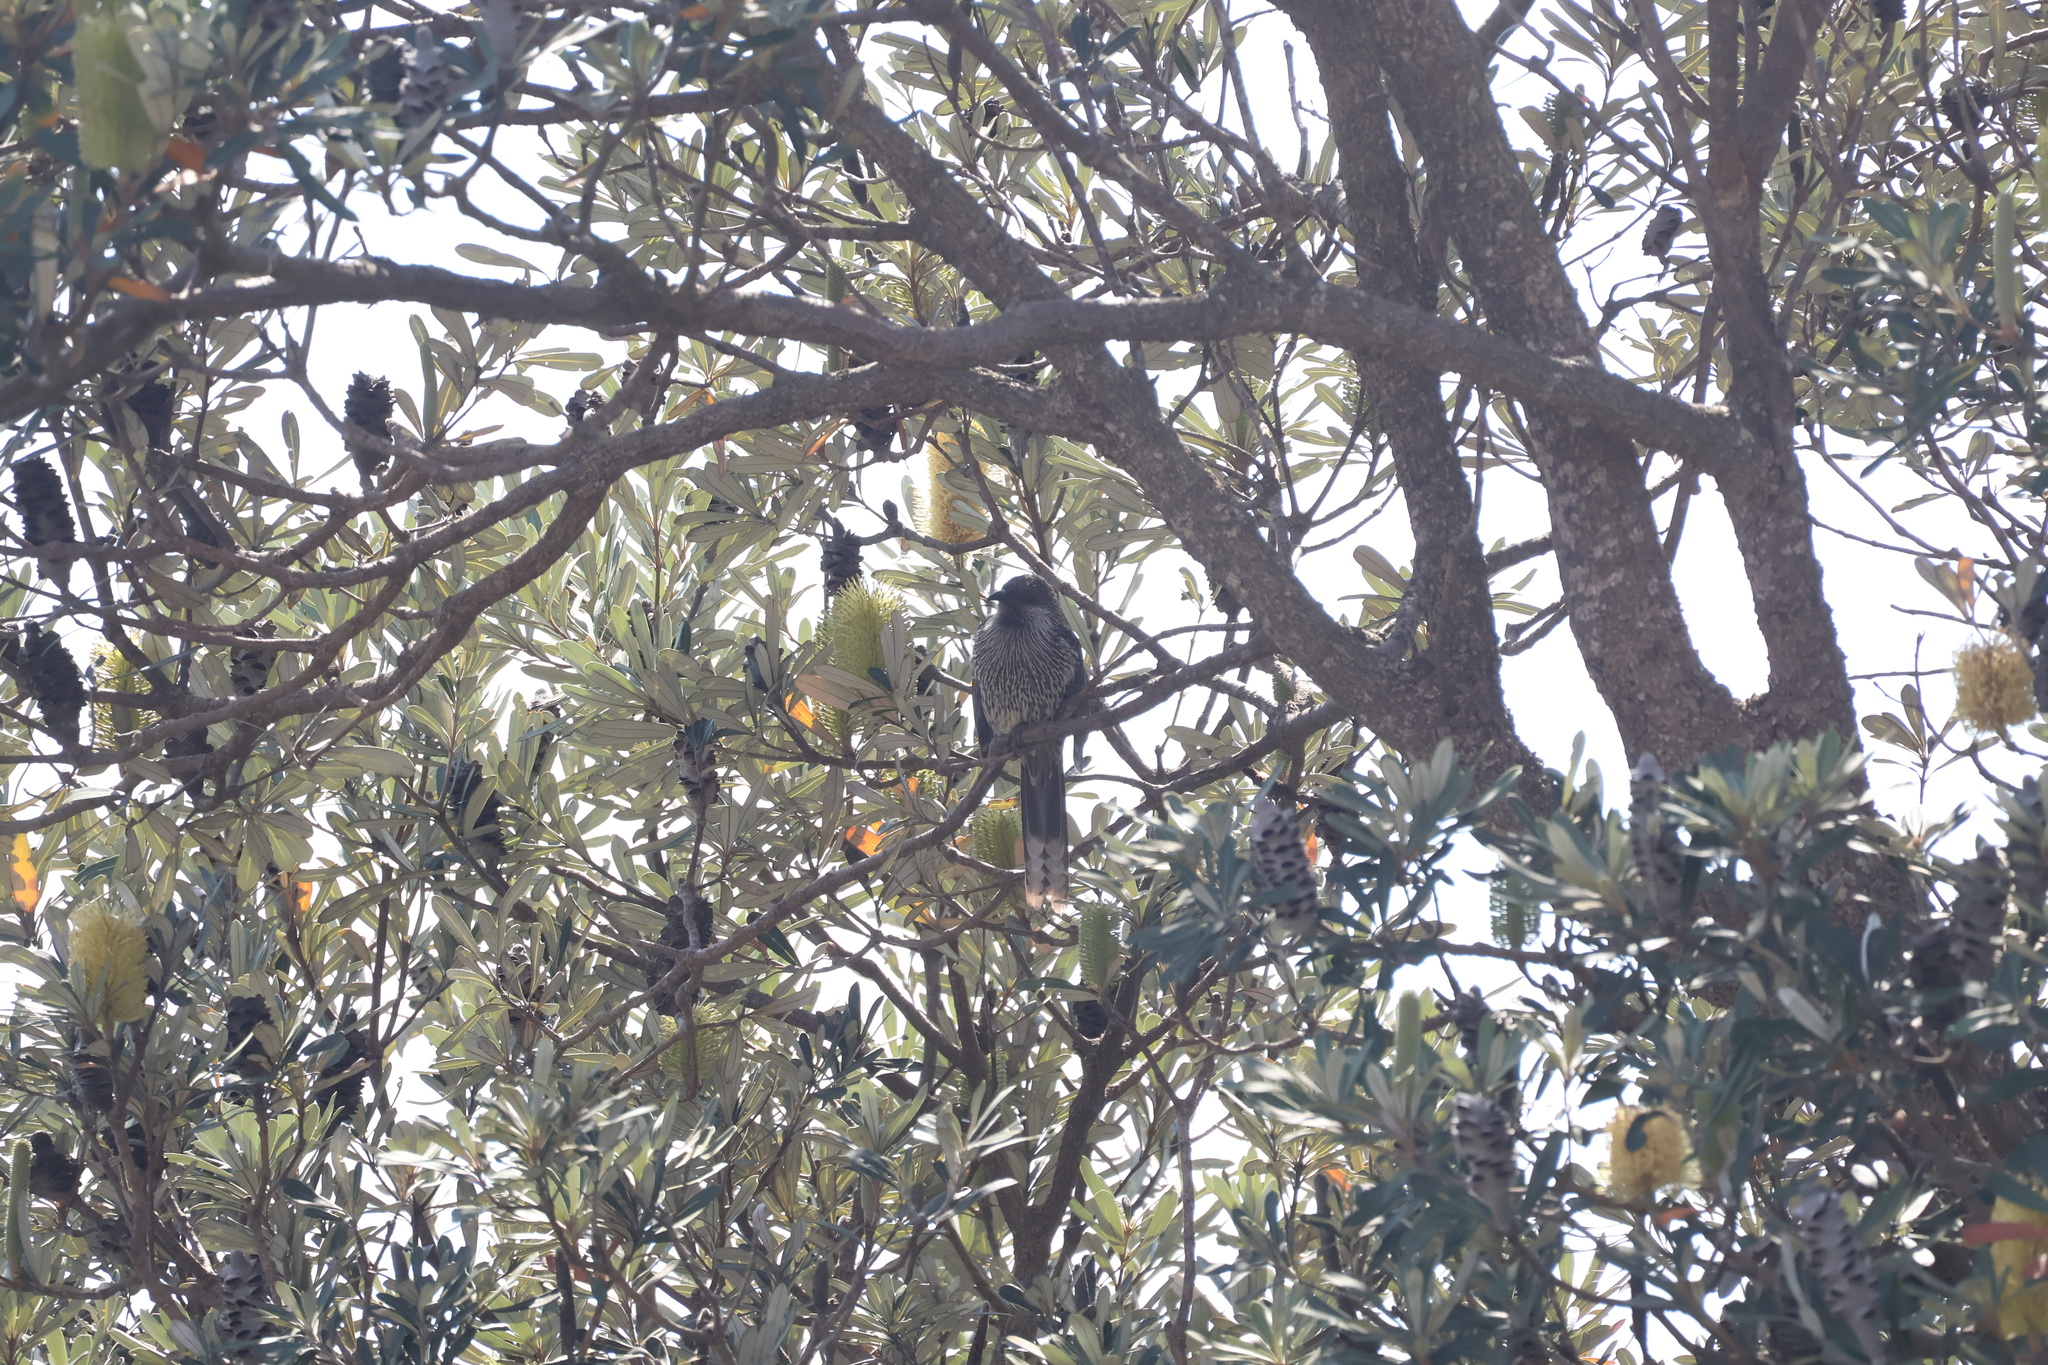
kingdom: Animalia
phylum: Chordata
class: Aves
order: Passeriformes
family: Meliphagidae
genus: Anthochaera
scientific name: Anthochaera chrysoptera
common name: Little wattlebird
